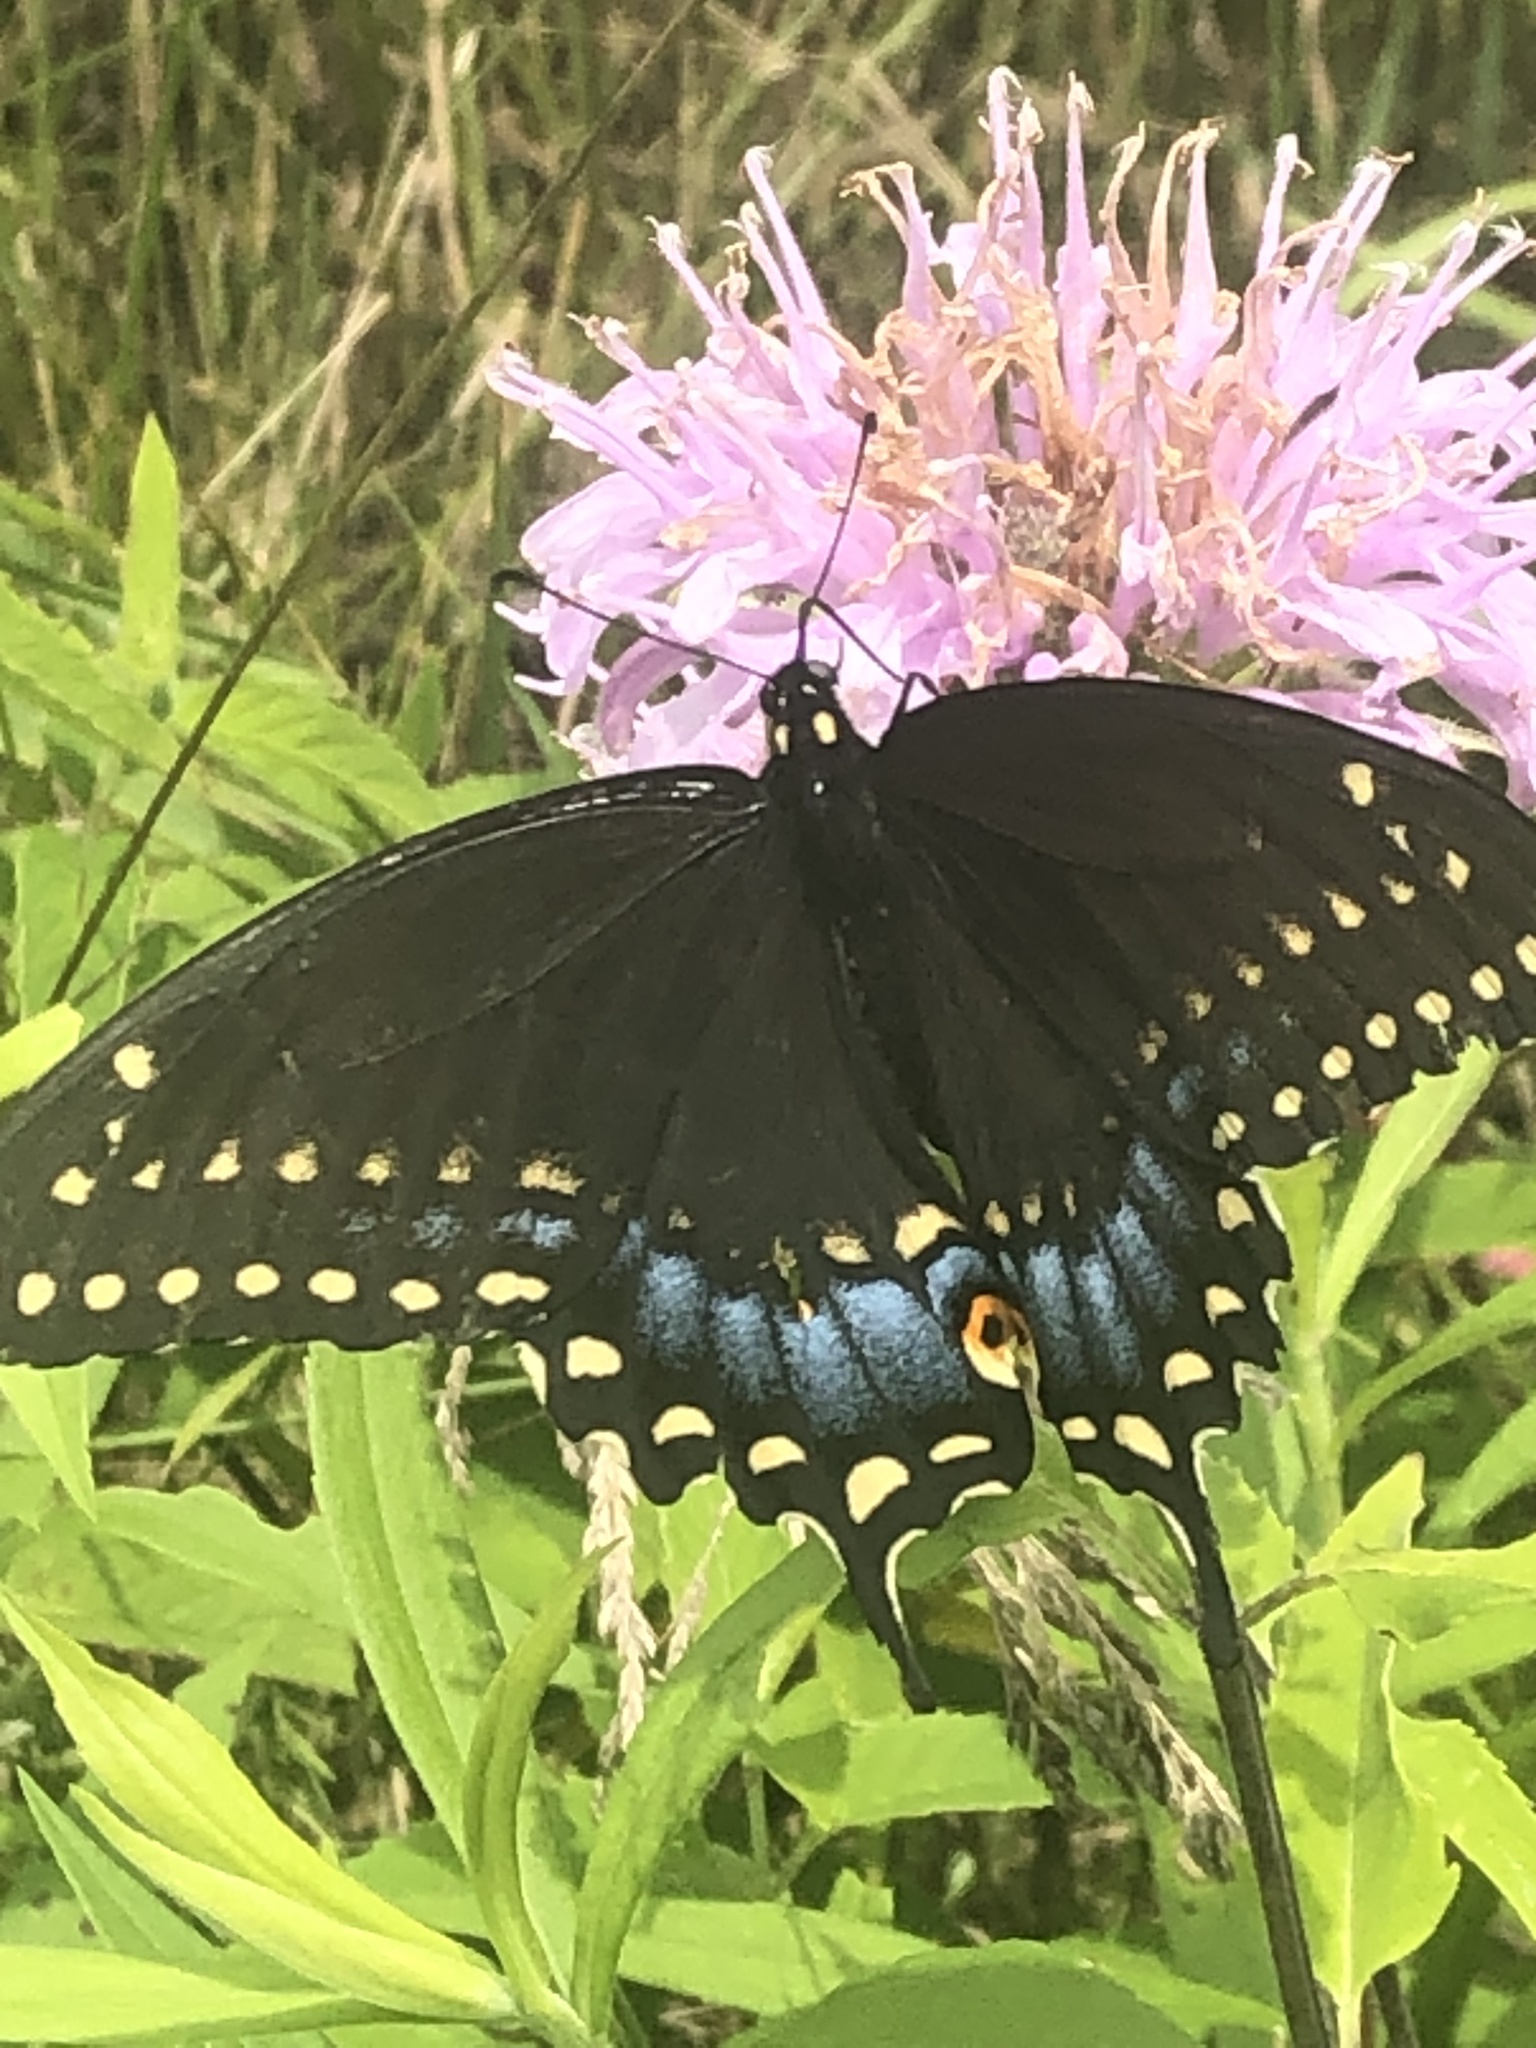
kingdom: Animalia
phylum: Arthropoda
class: Insecta
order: Lepidoptera
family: Papilionidae
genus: Papilio
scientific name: Papilio polyxenes
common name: Black swallowtail
